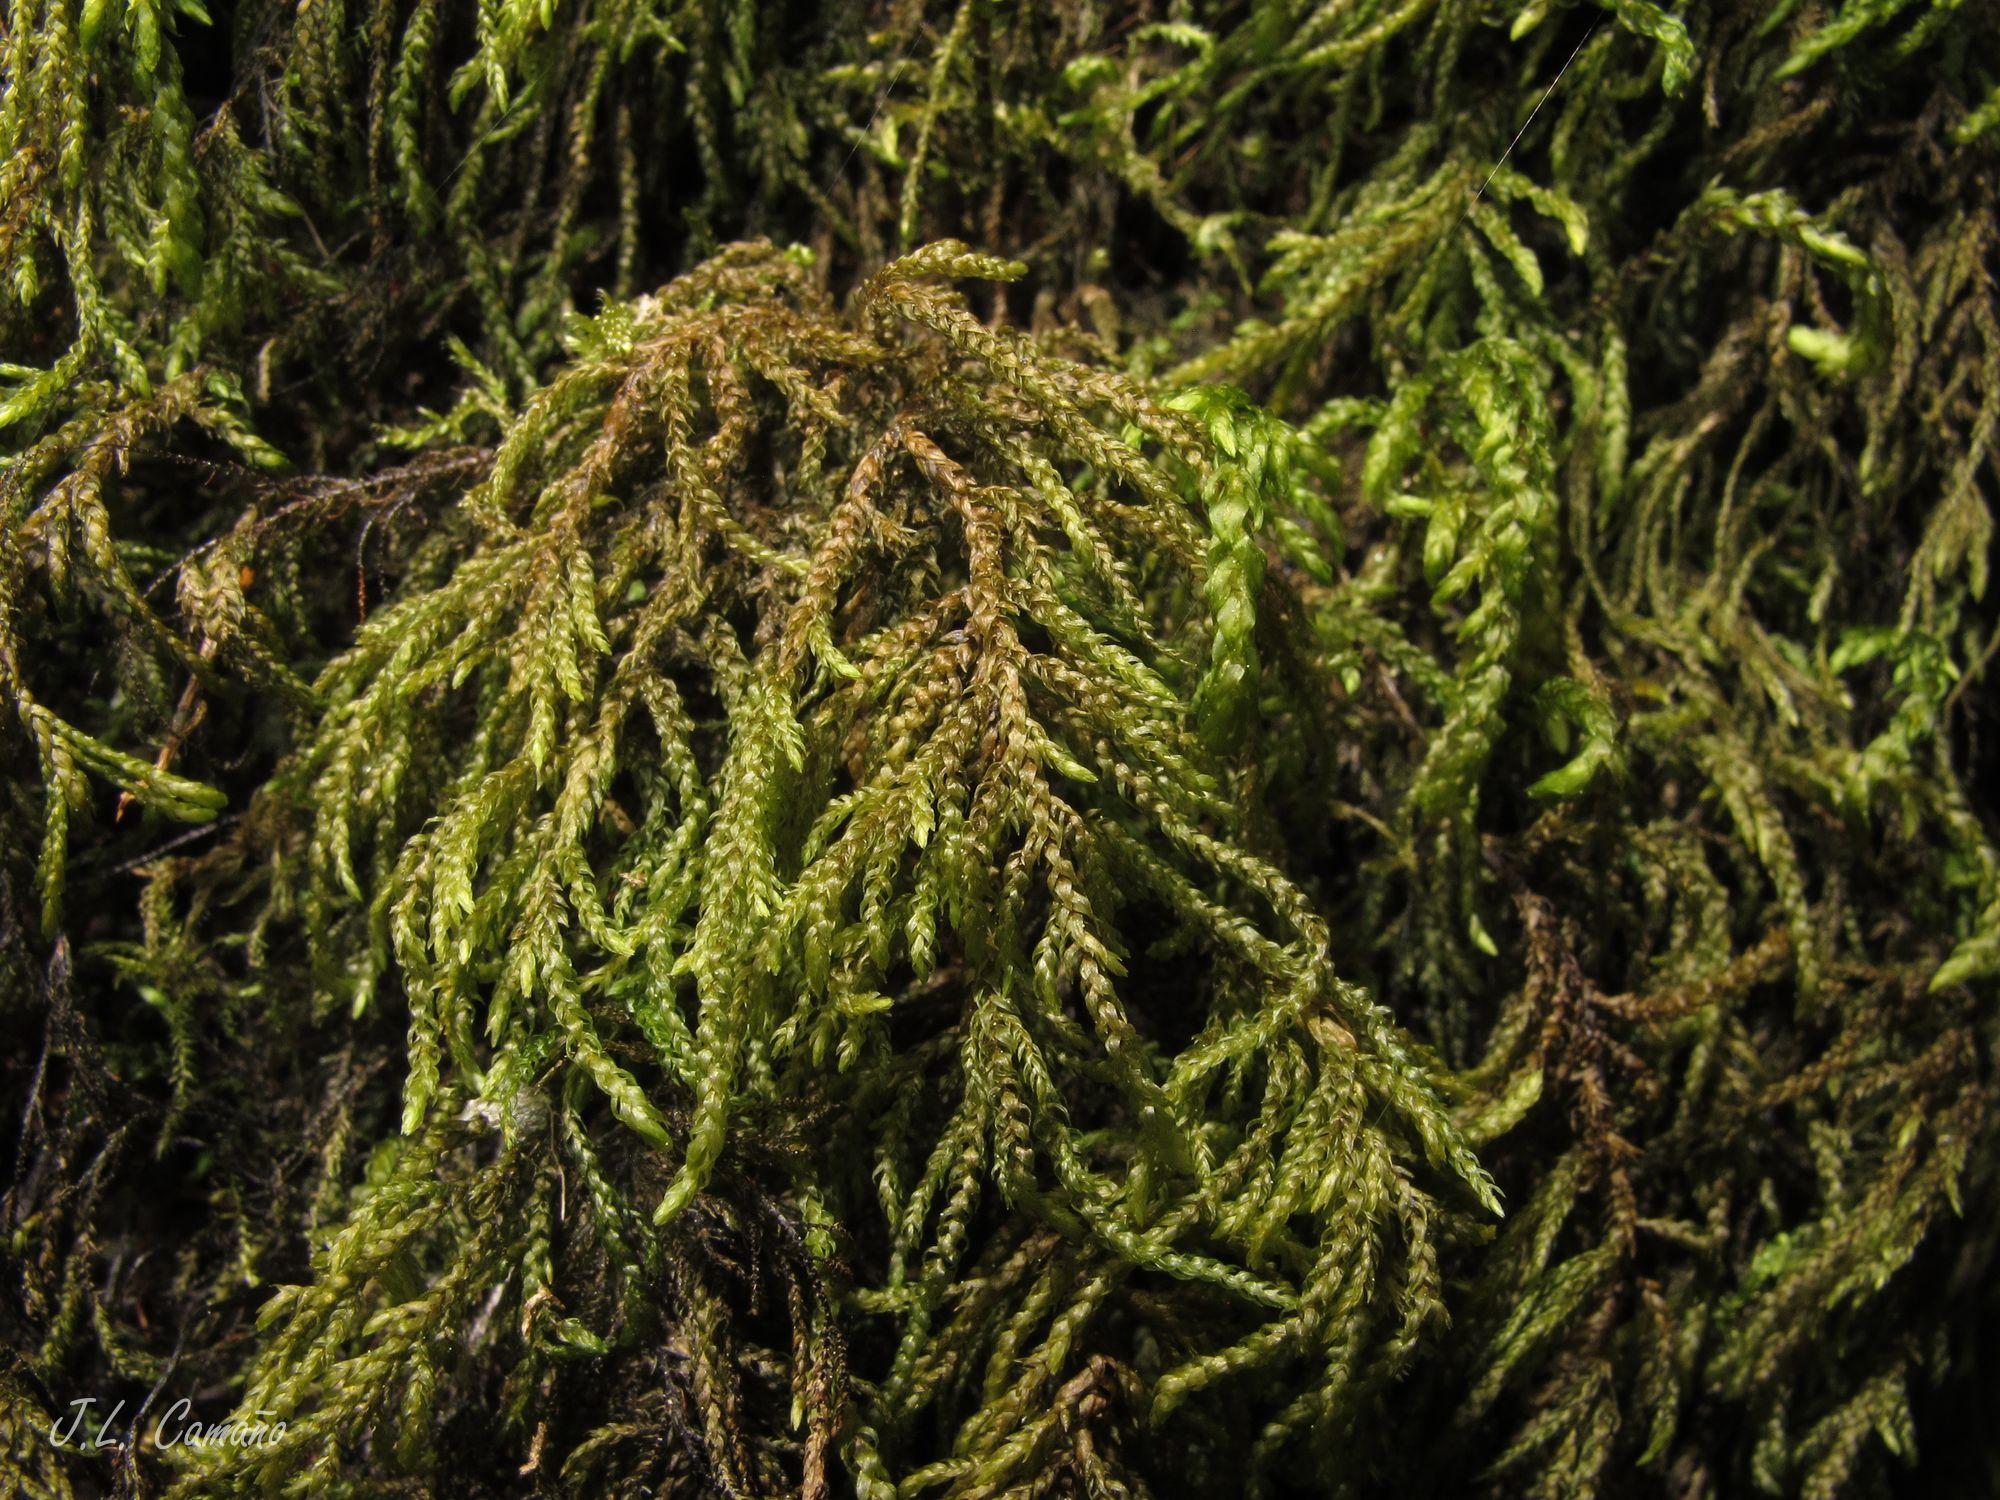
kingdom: Plantae
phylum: Bryophyta
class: Bryopsida
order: Hypnales
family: Neckeraceae
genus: Thamnobryum
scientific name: Thamnobryum alopecurum
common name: Fox-tail feather-moss
